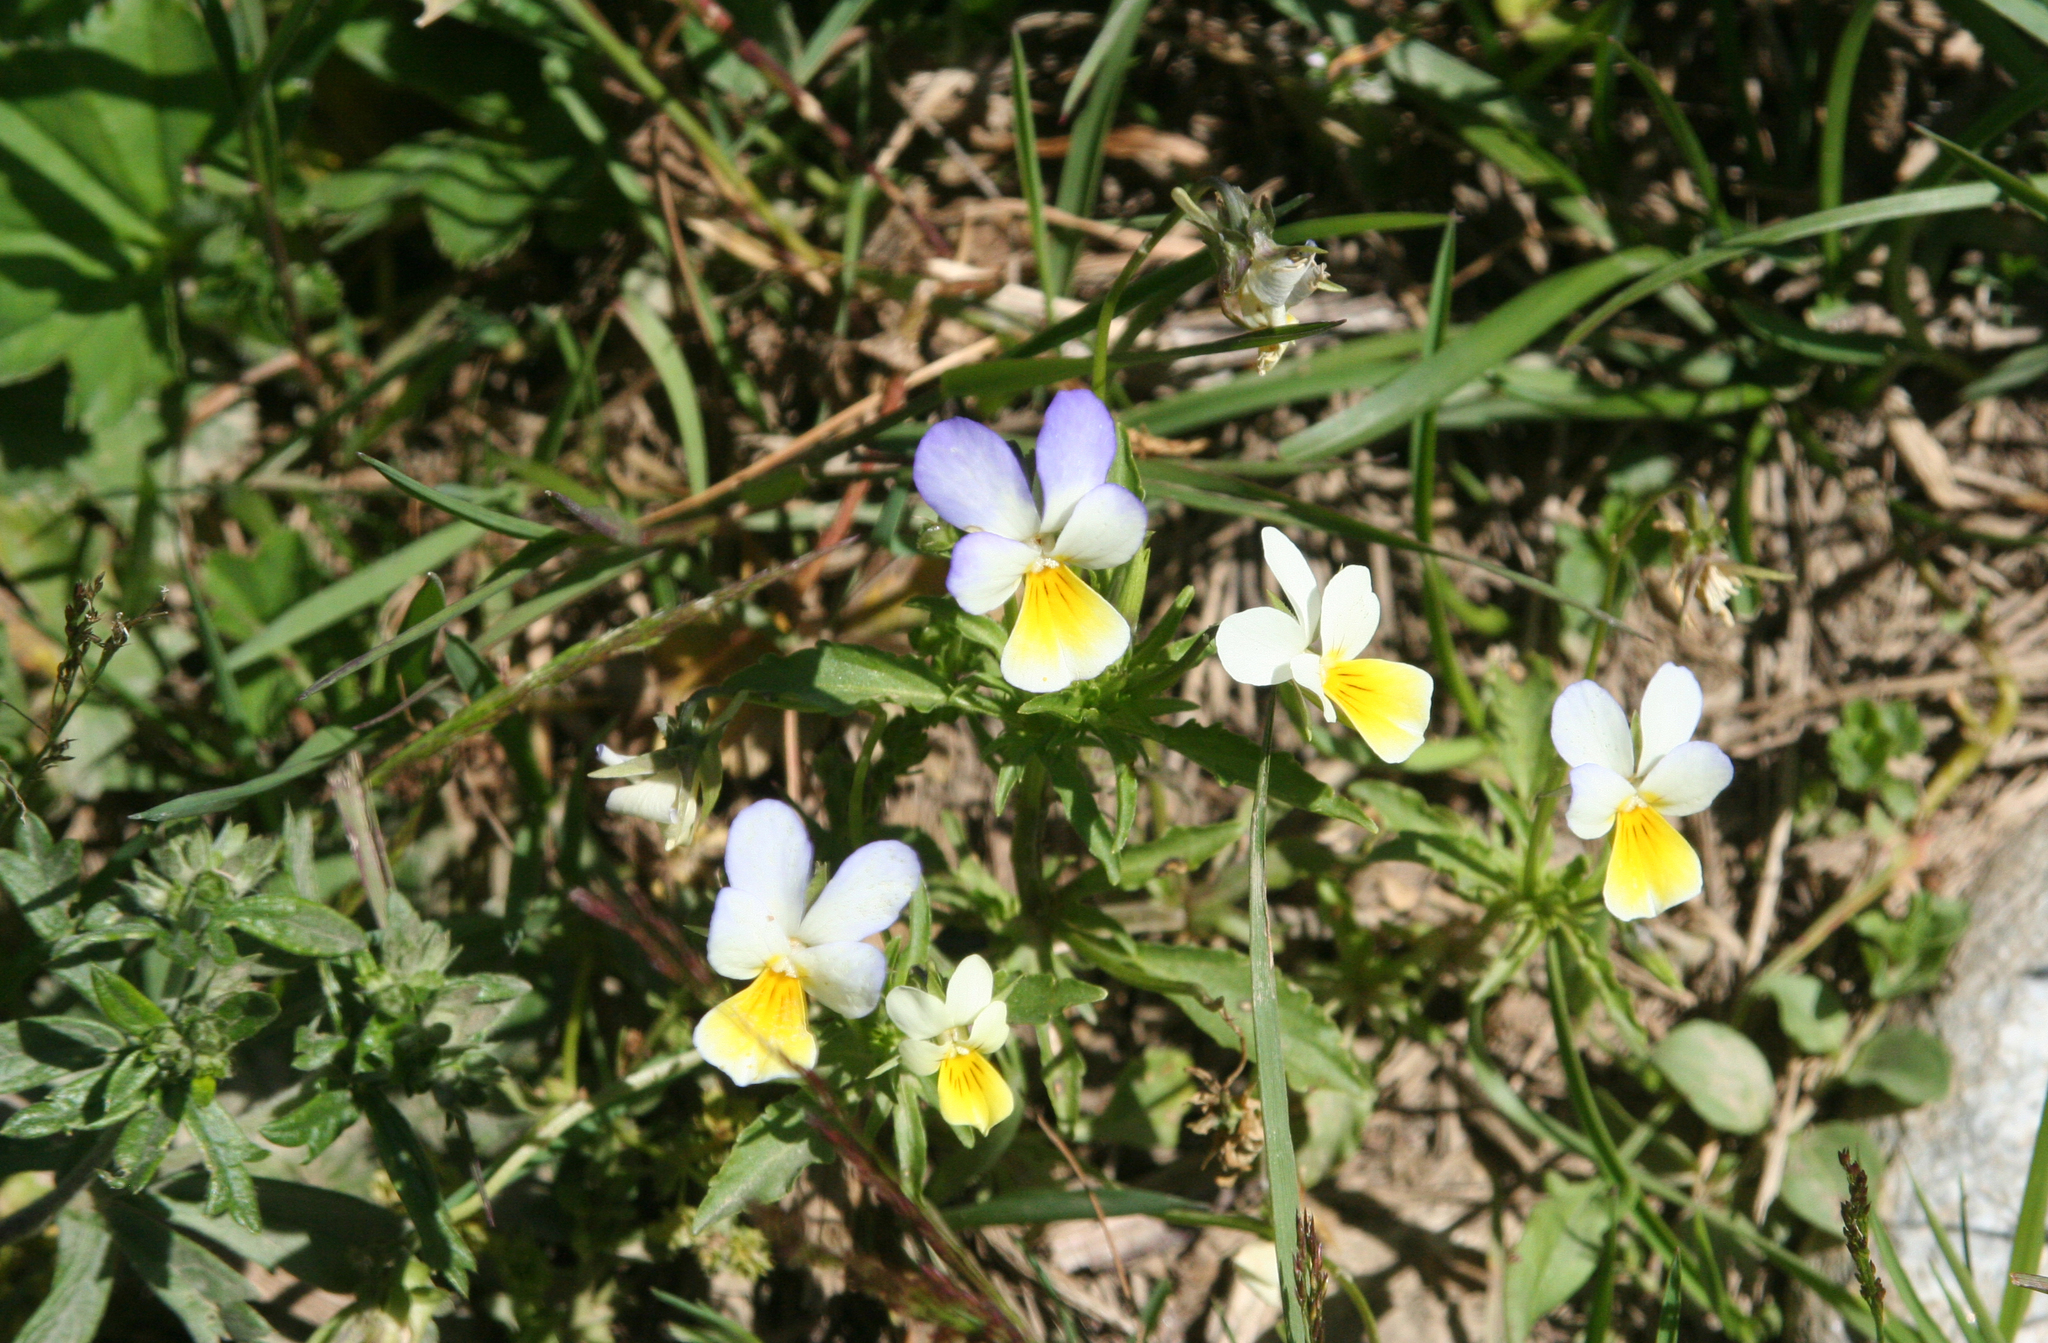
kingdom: Plantae
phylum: Tracheophyta
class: Magnoliopsida
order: Malpighiales
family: Violaceae
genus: Viola
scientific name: Viola tricolor
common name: Pansy
